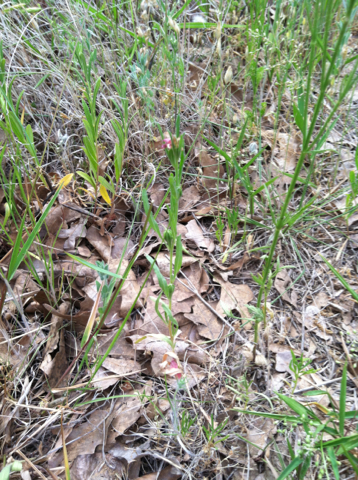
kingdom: Plantae
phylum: Tracheophyta
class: Magnoliopsida
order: Myrtales
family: Onagraceae
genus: Oenothera
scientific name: Oenothera spachiana
